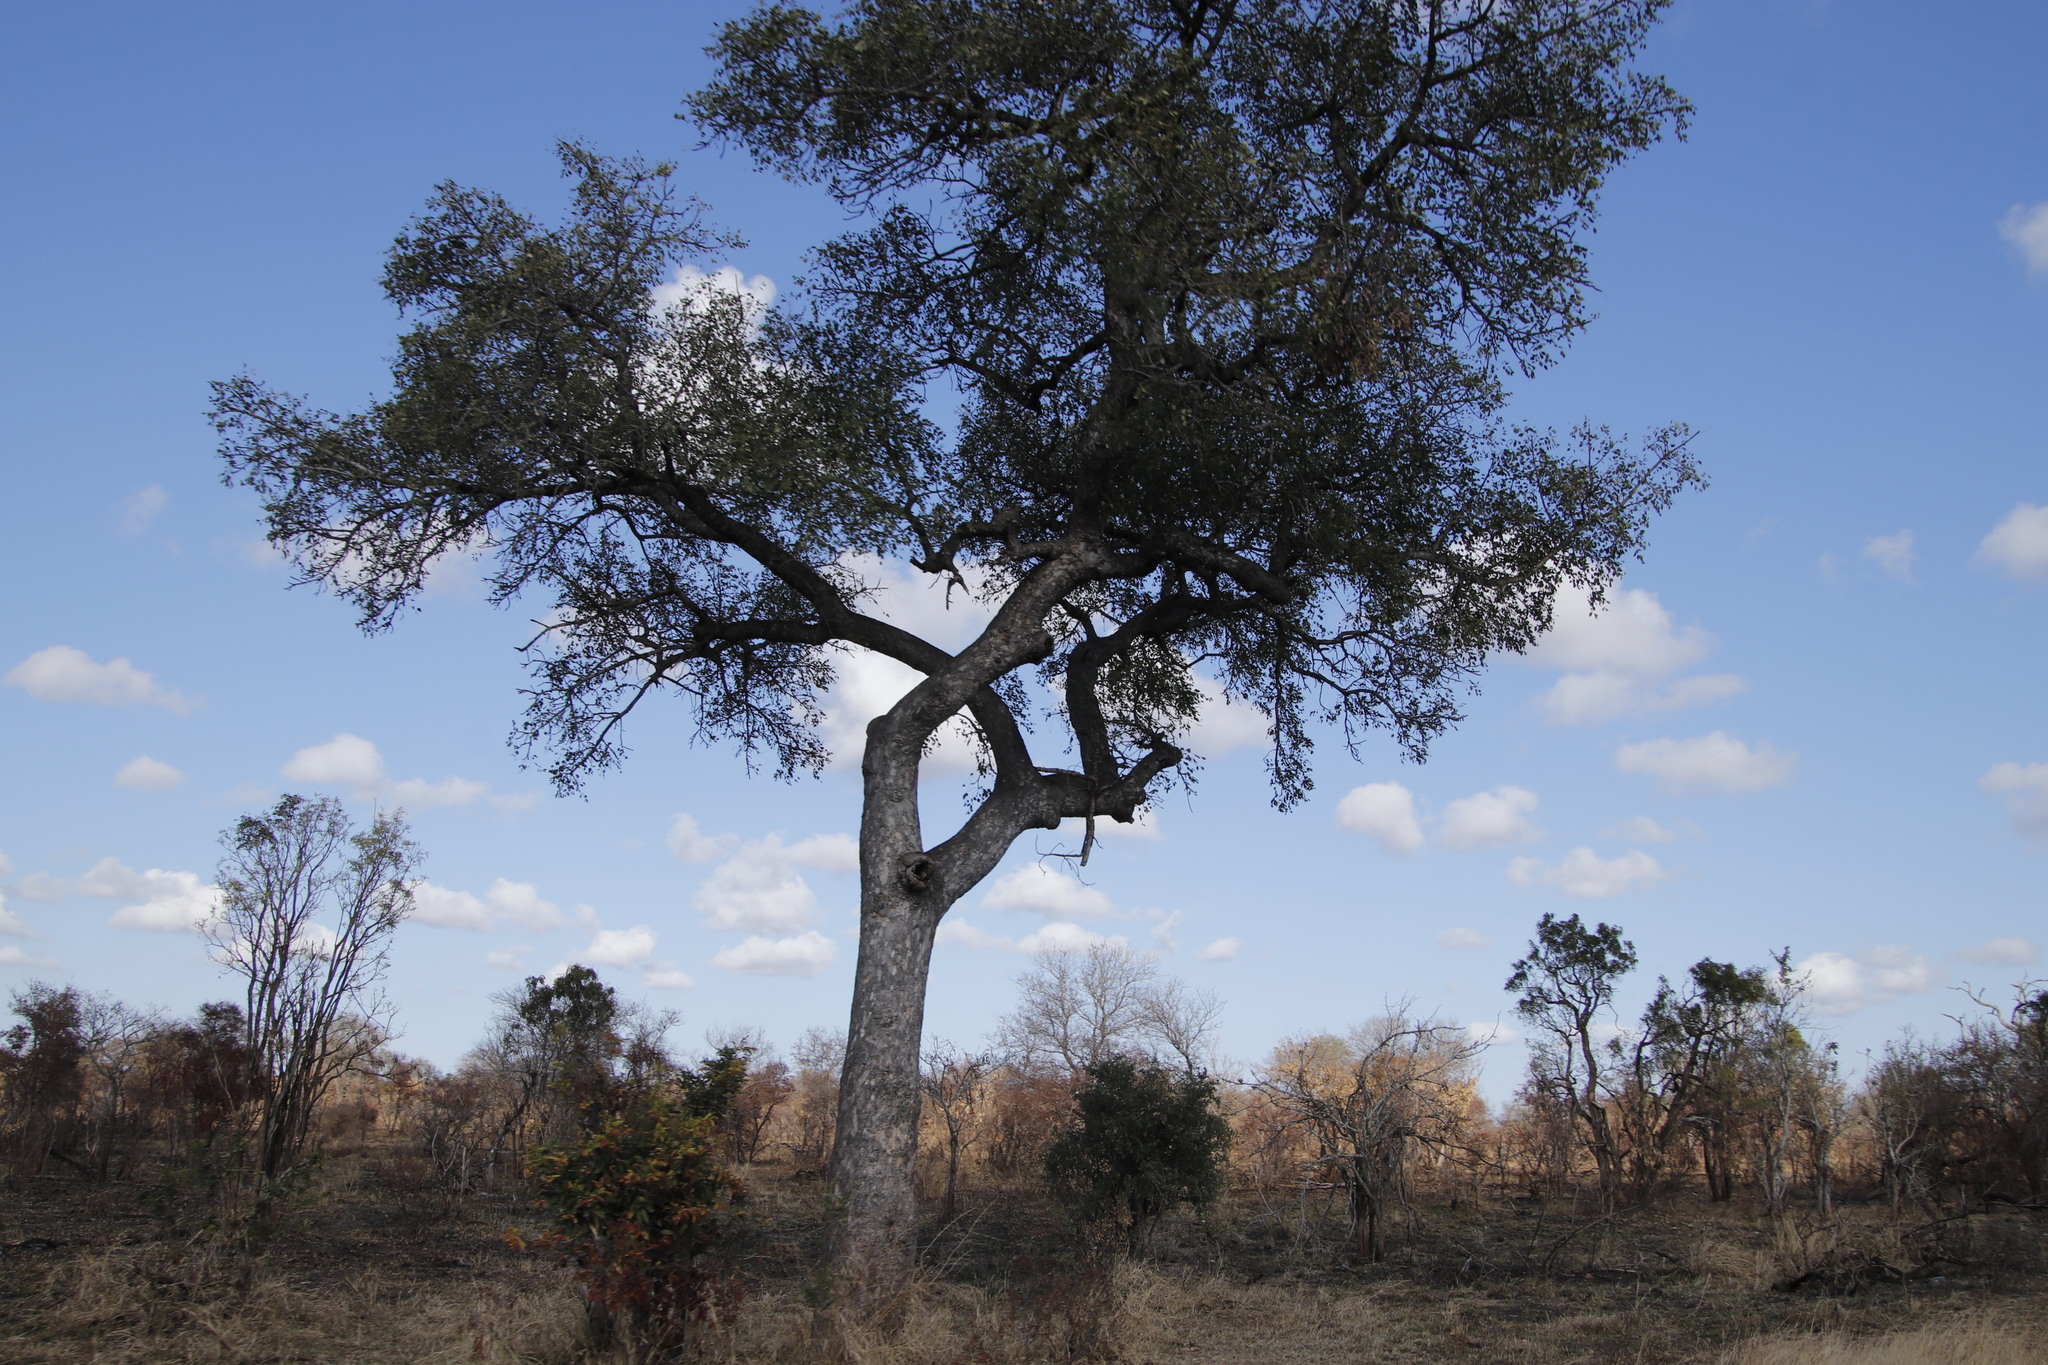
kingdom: Plantae
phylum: Tracheophyta
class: Magnoliopsida
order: Sapindales
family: Anacardiaceae
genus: Sclerocarya
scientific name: Sclerocarya birrea
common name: Marula
